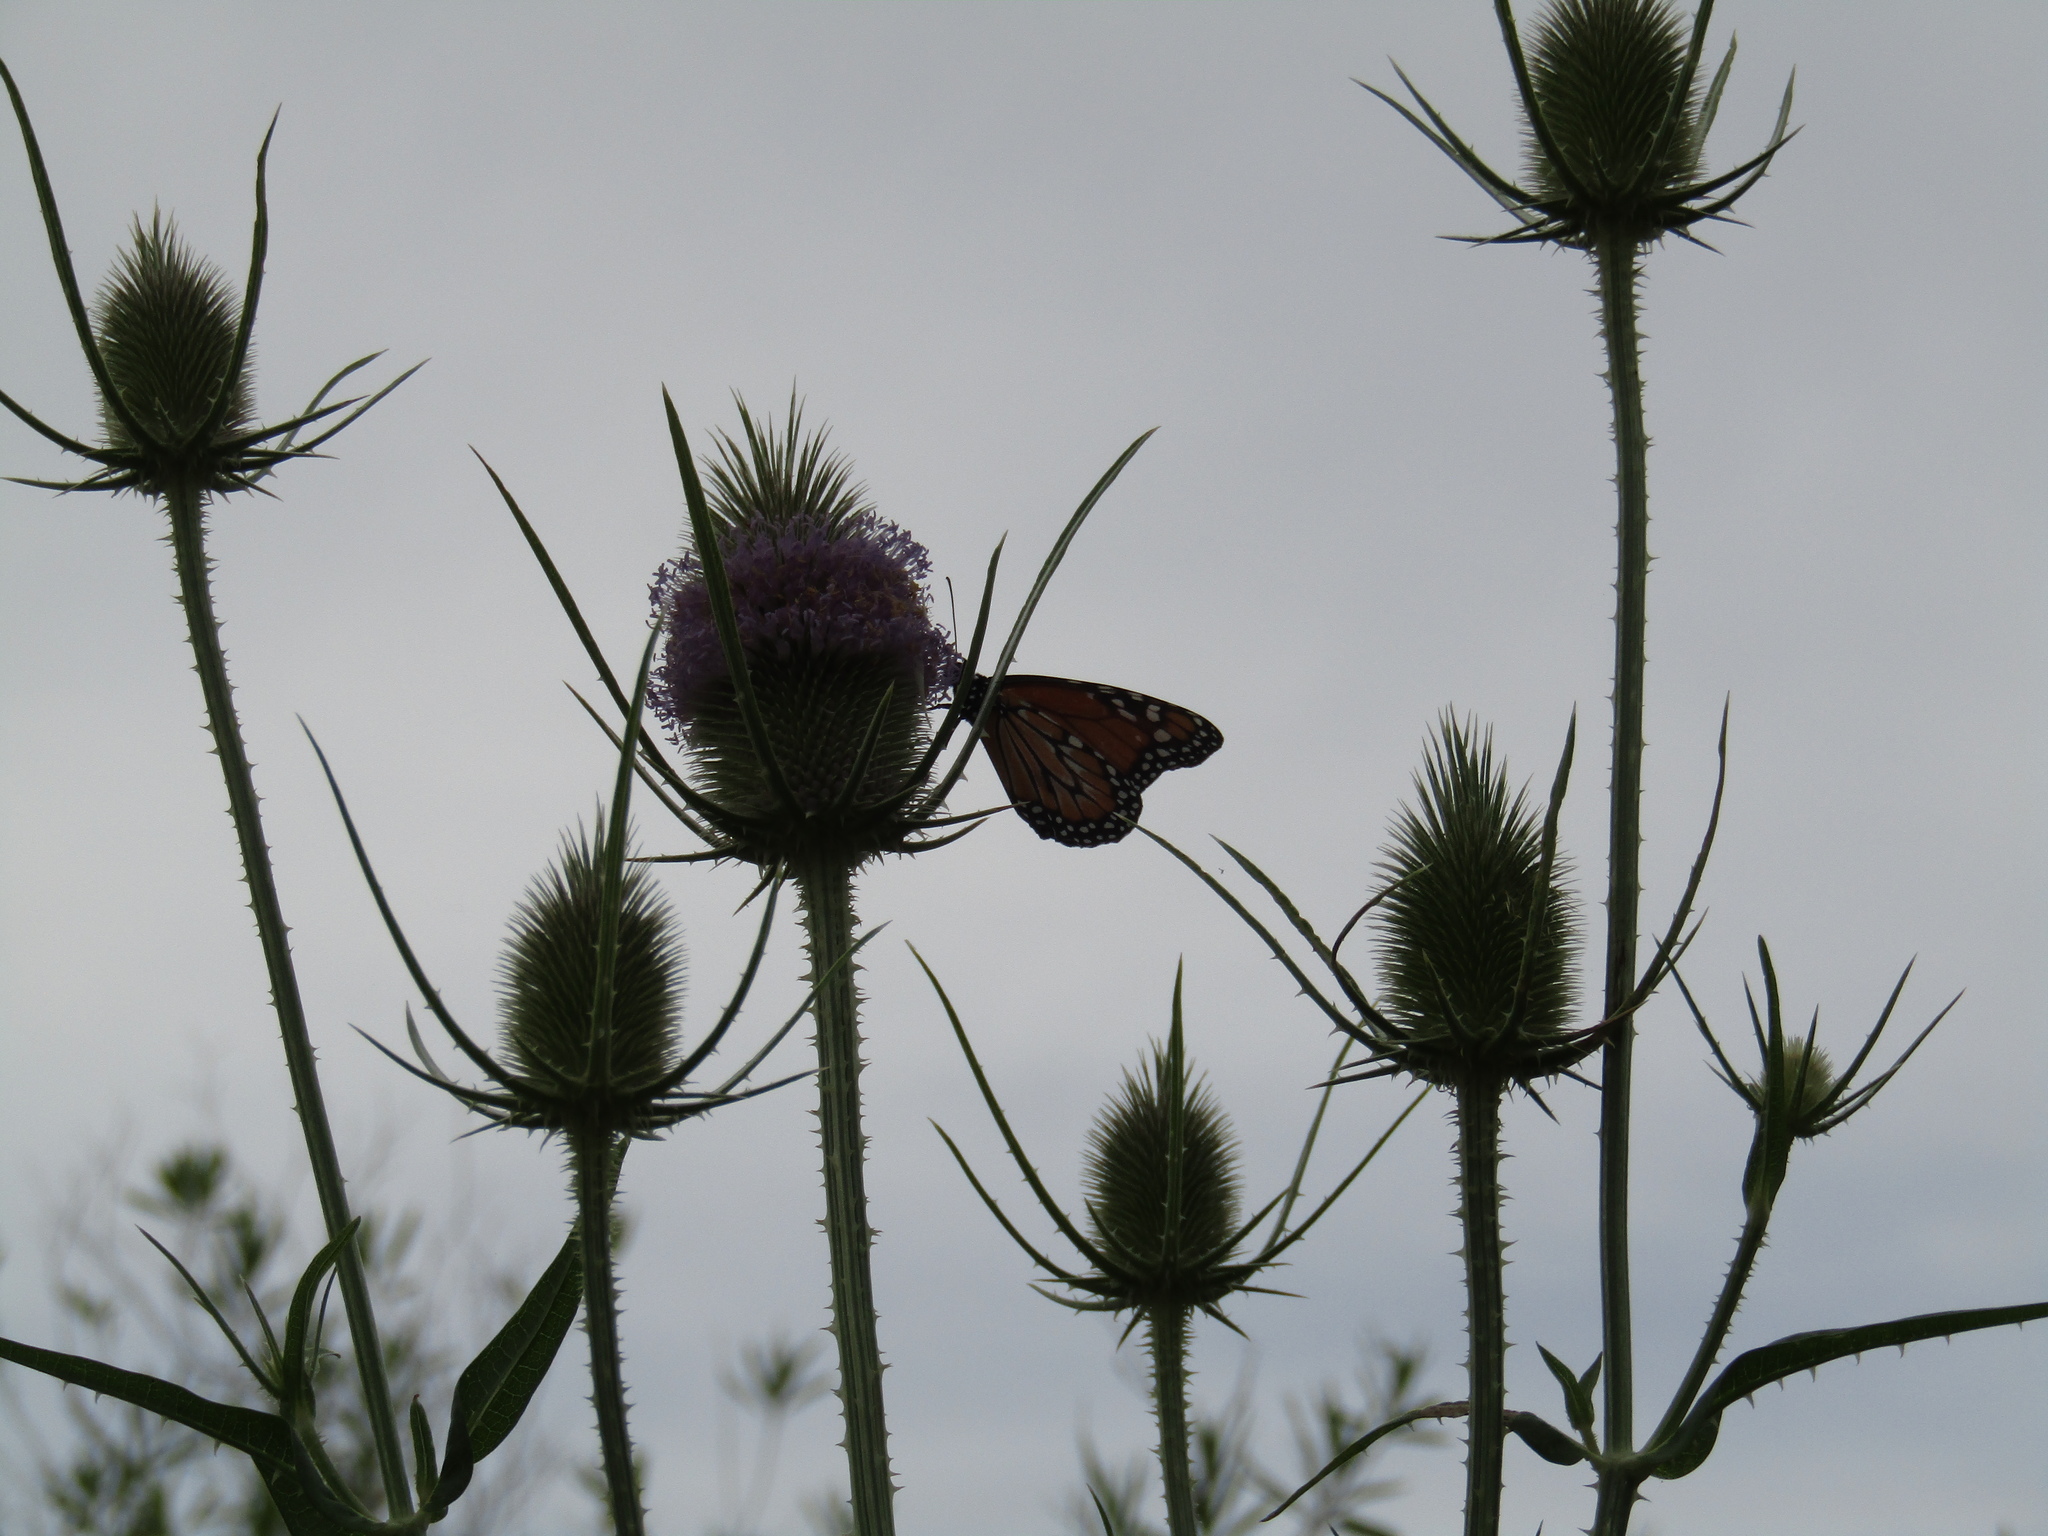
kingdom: Animalia
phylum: Arthropoda
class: Insecta
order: Lepidoptera
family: Nymphalidae
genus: Danaus
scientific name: Danaus erippus
